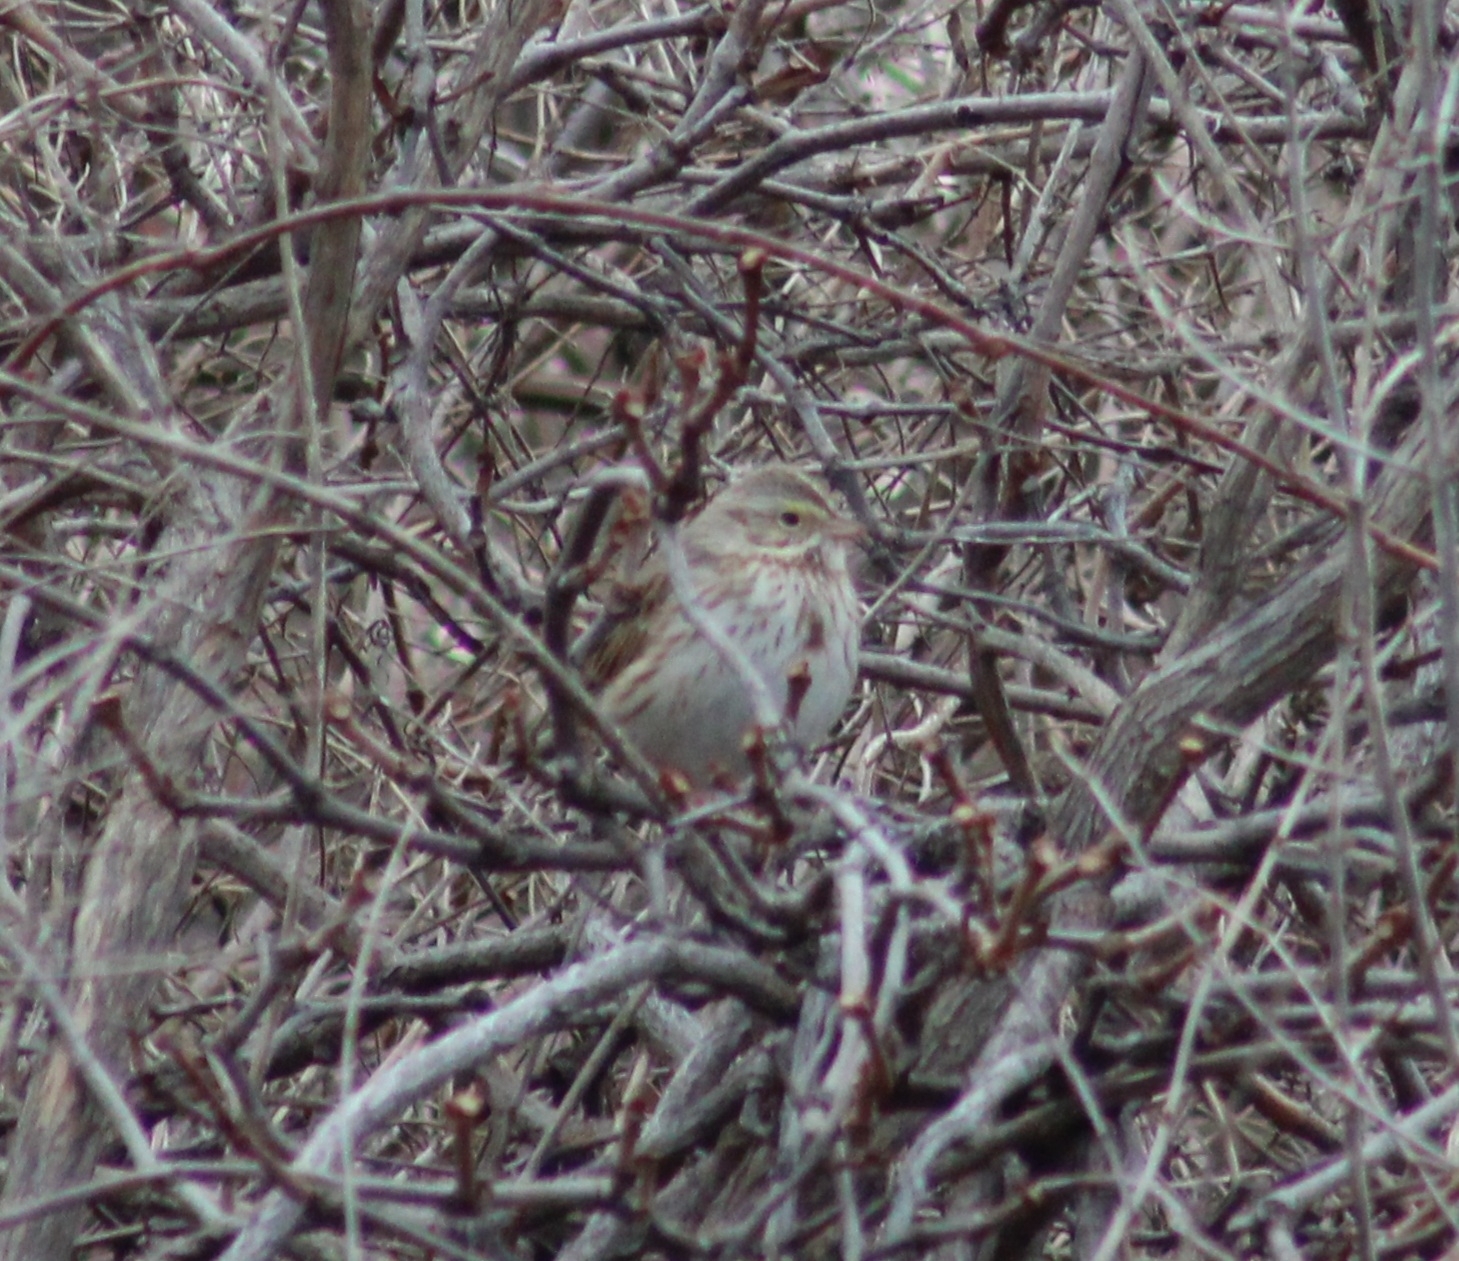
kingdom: Animalia
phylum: Chordata
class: Aves
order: Passeriformes
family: Passerellidae
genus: Passerculus
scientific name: Passerculus sandwichensis
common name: Savannah sparrow
